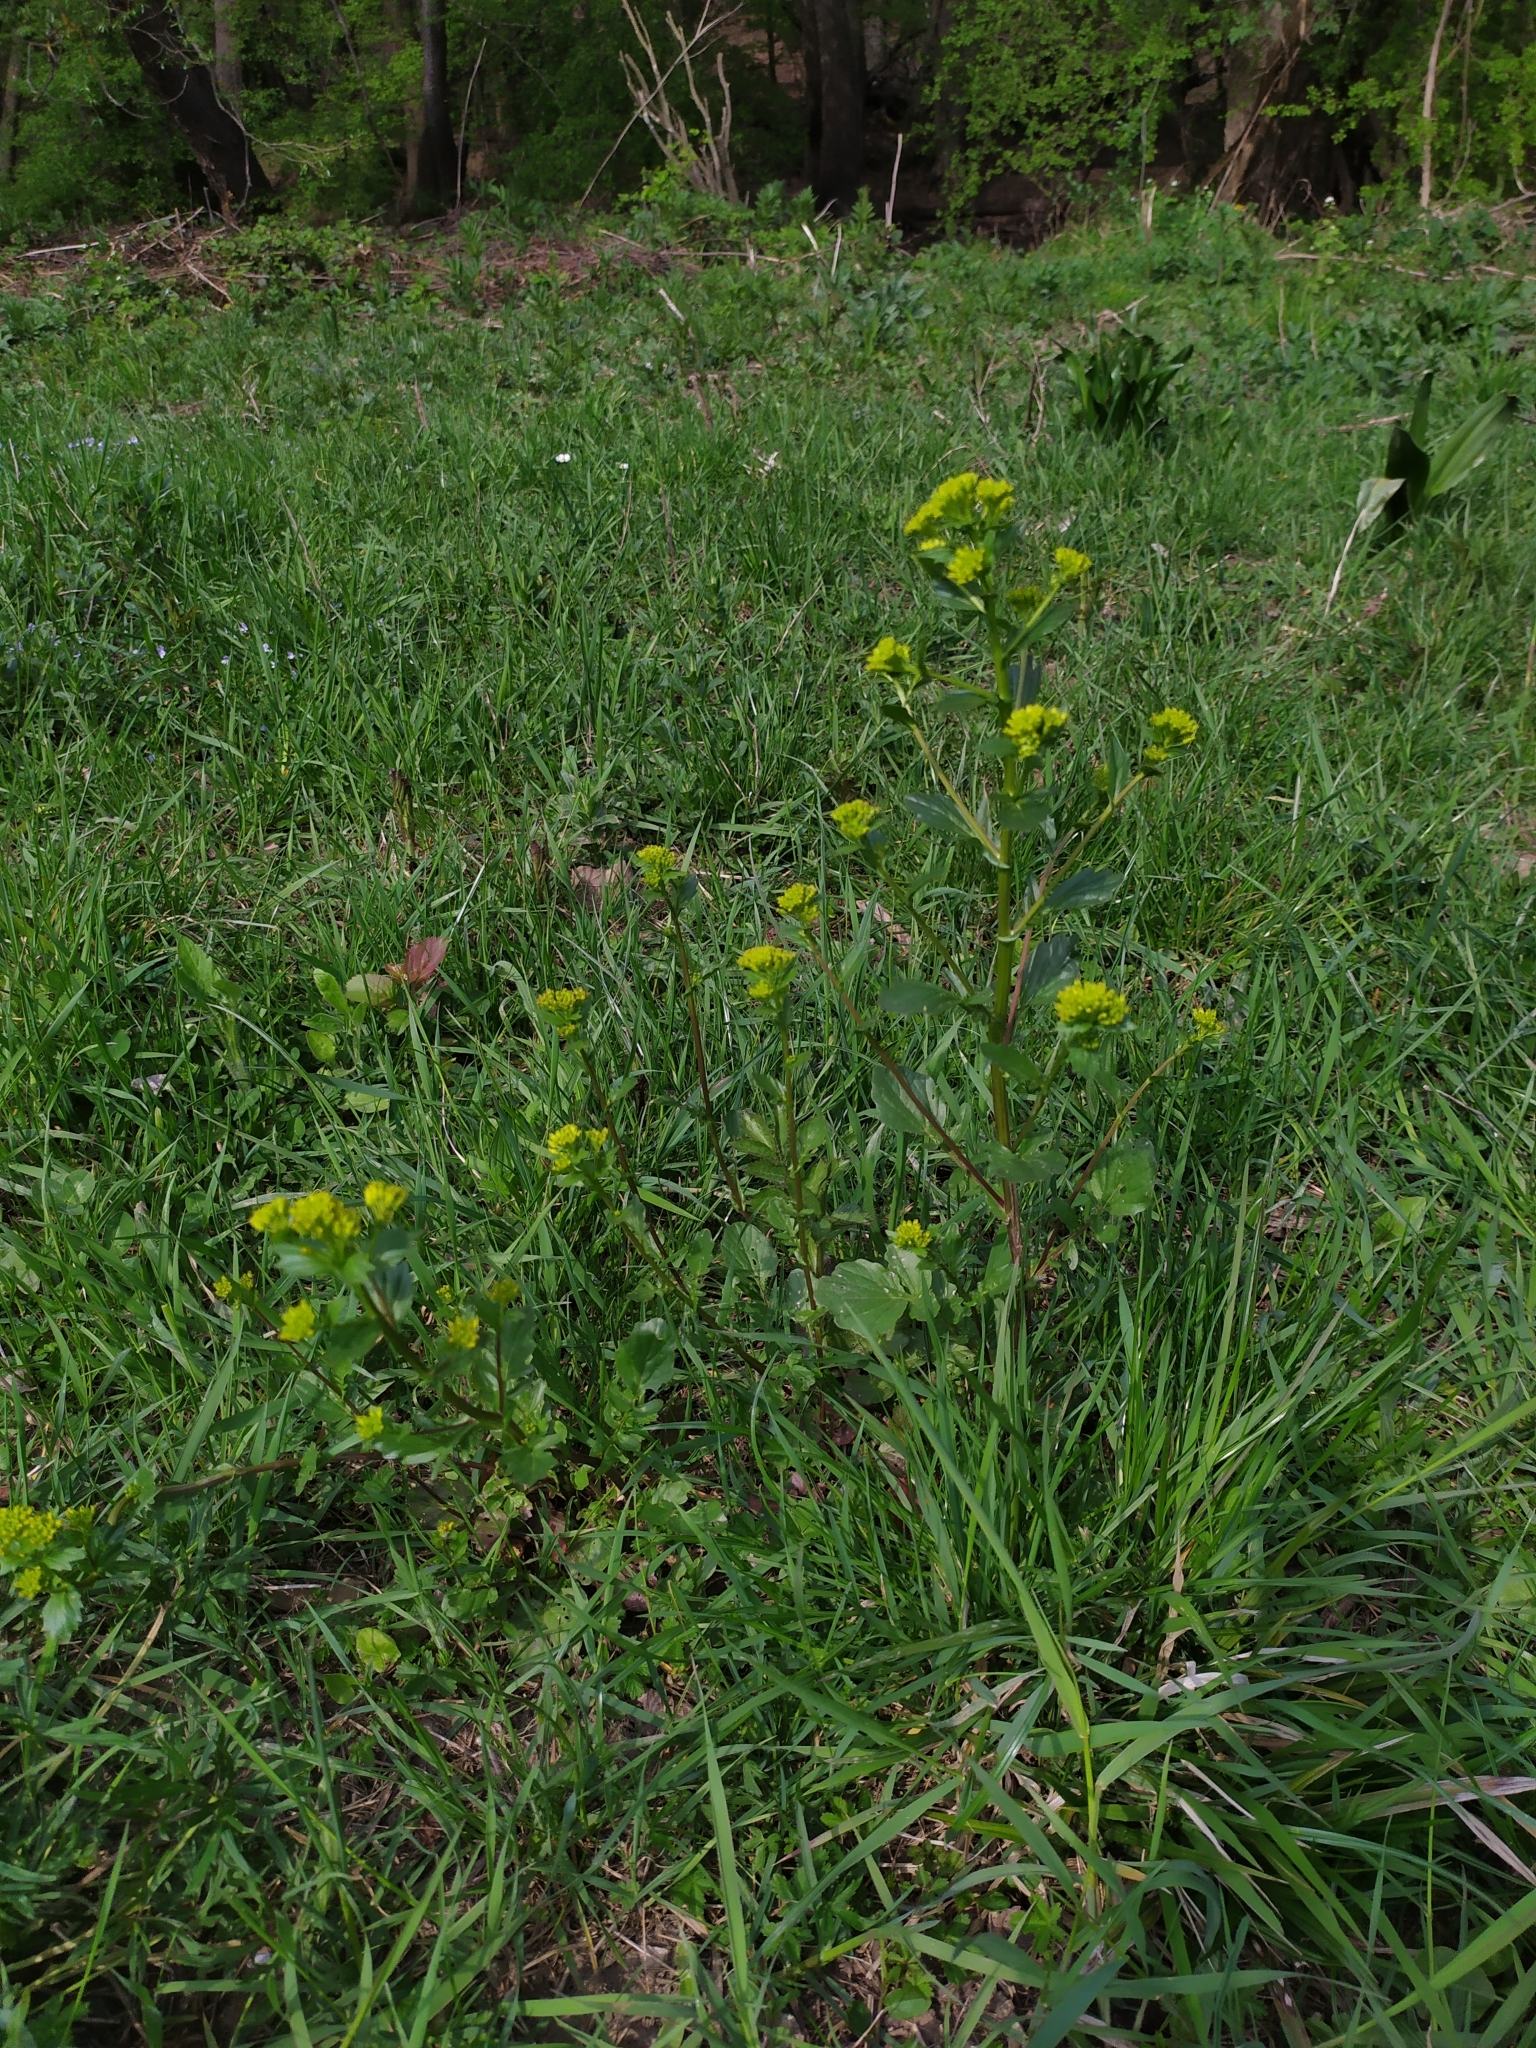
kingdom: Plantae
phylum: Tracheophyta
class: Magnoliopsida
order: Brassicales
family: Brassicaceae
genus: Barbarea
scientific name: Barbarea vulgaris
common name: Cressy-greens
